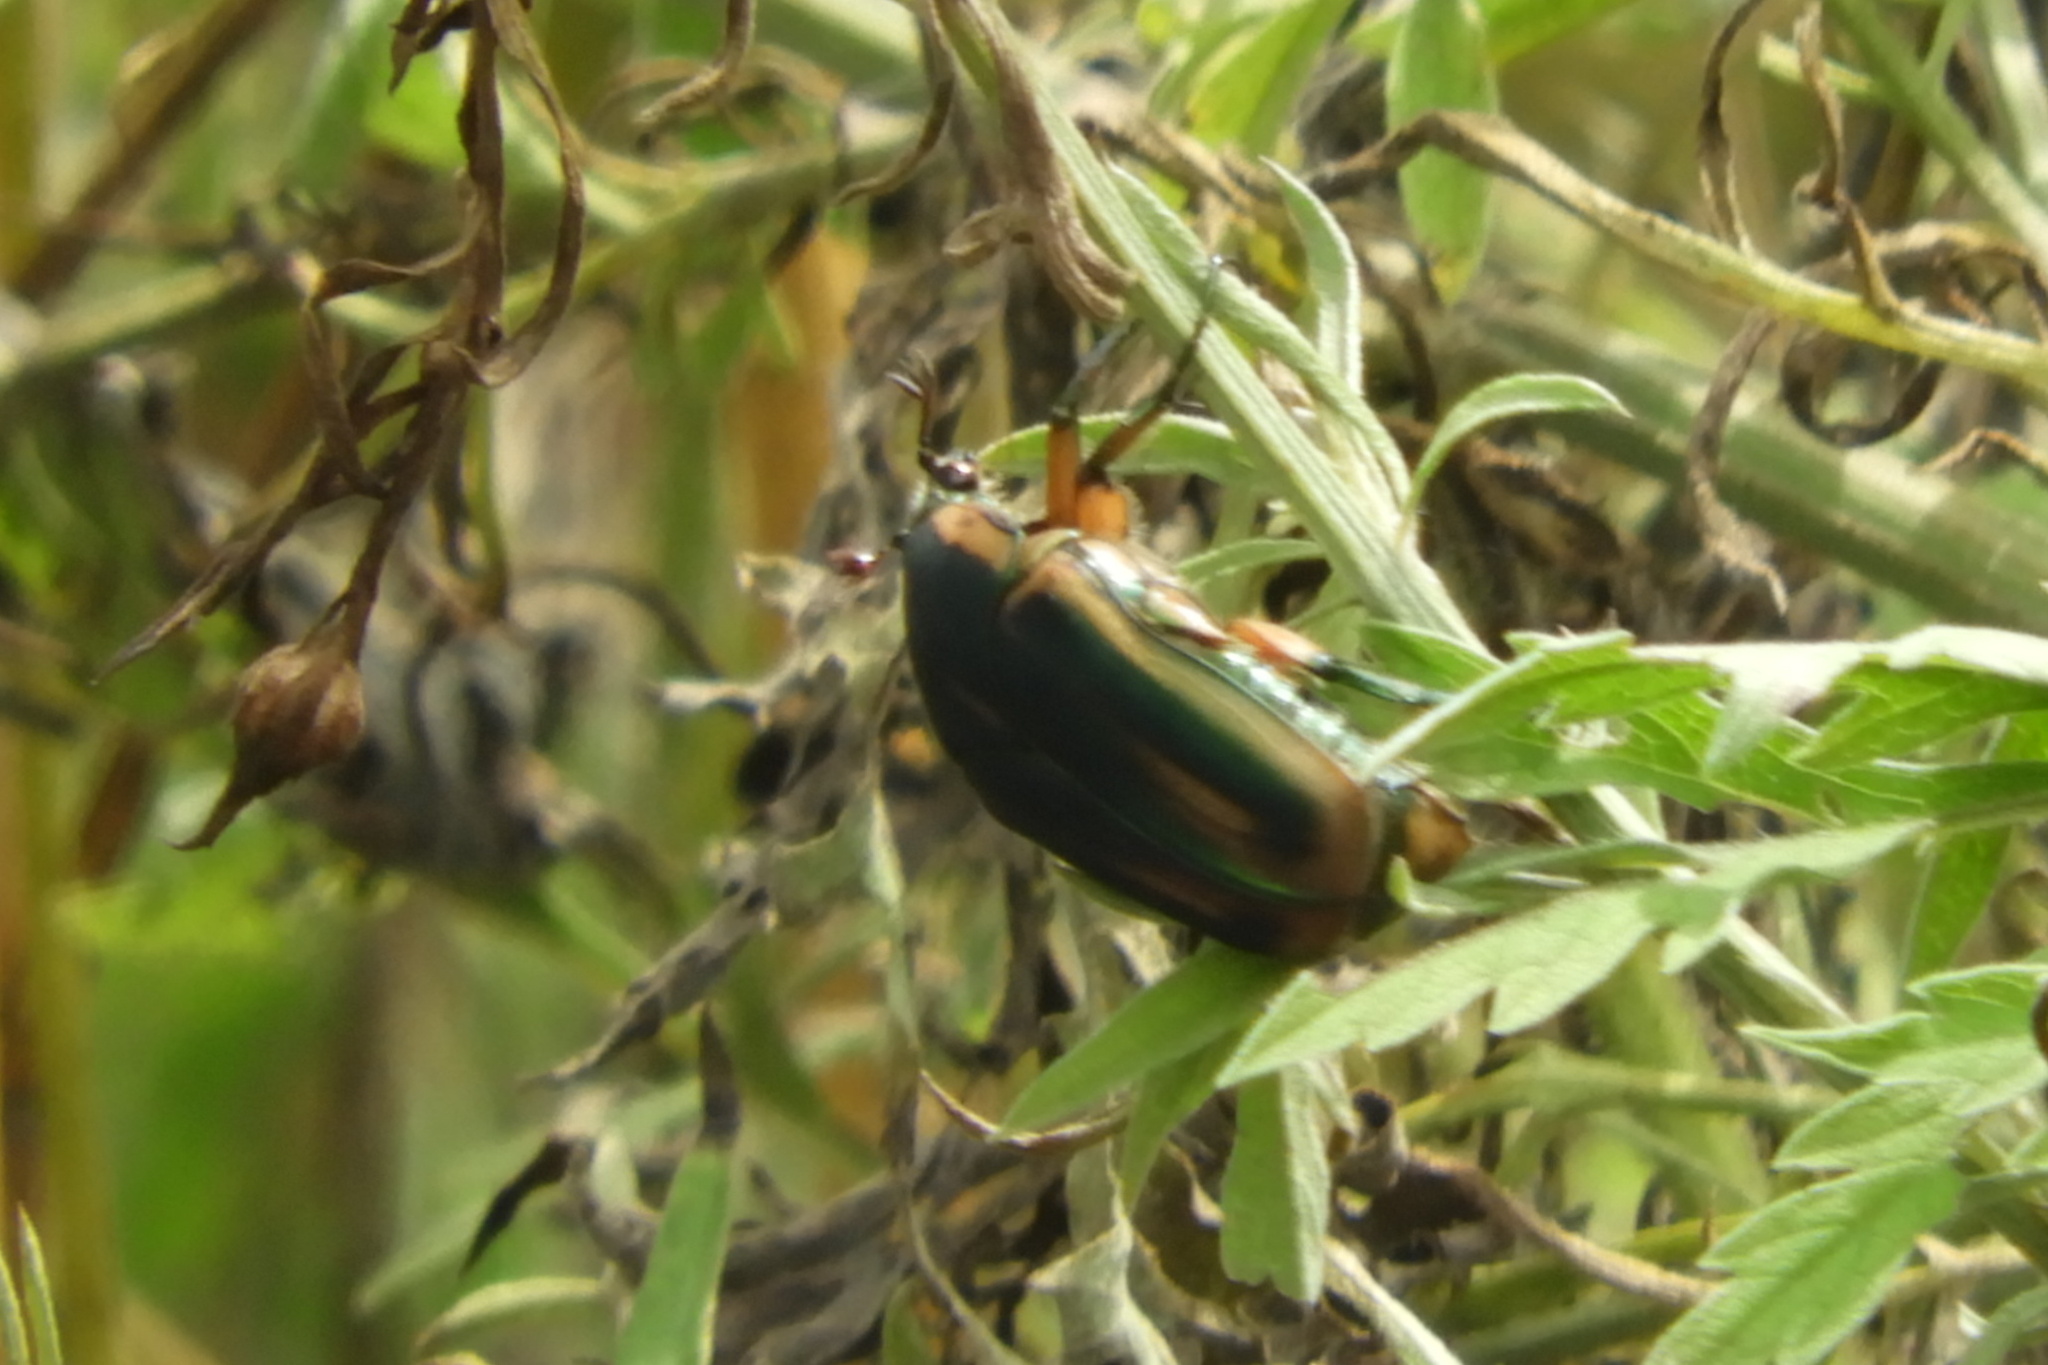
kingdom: Animalia
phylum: Arthropoda
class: Insecta
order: Coleoptera
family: Scarabaeidae
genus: Cotinis
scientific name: Cotinis nitida
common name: Common green june beetle
